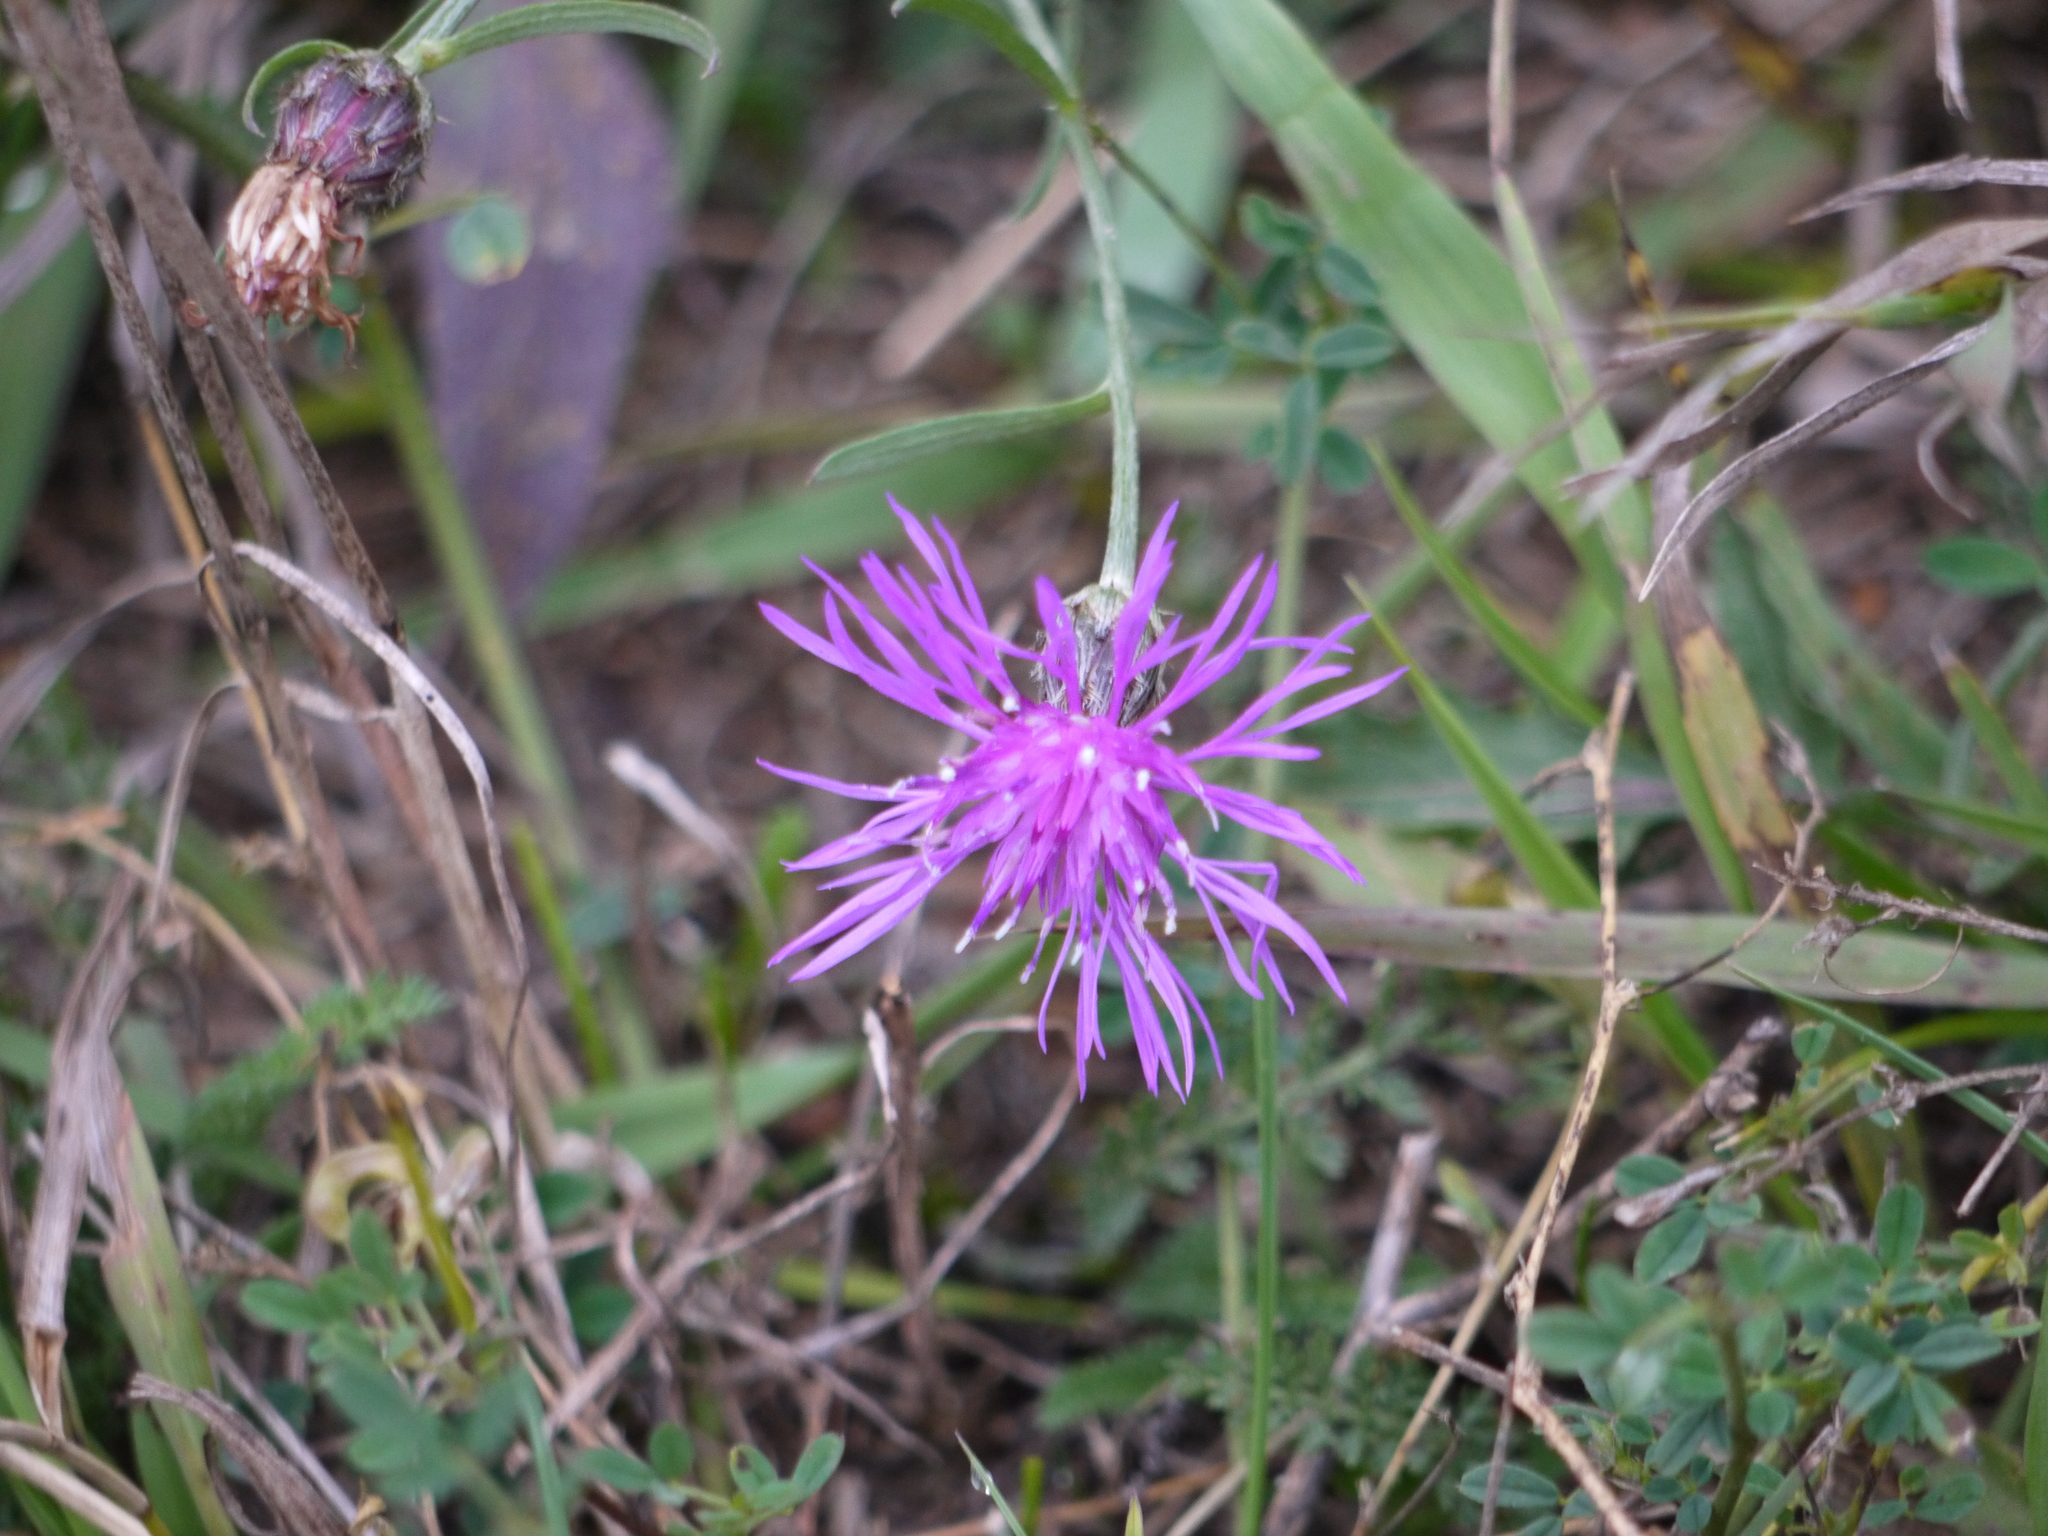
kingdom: Plantae
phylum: Tracheophyta
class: Magnoliopsida
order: Asterales
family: Asteraceae
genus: Centaurea
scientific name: Centaurea stoebe
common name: Spotted knapweed
